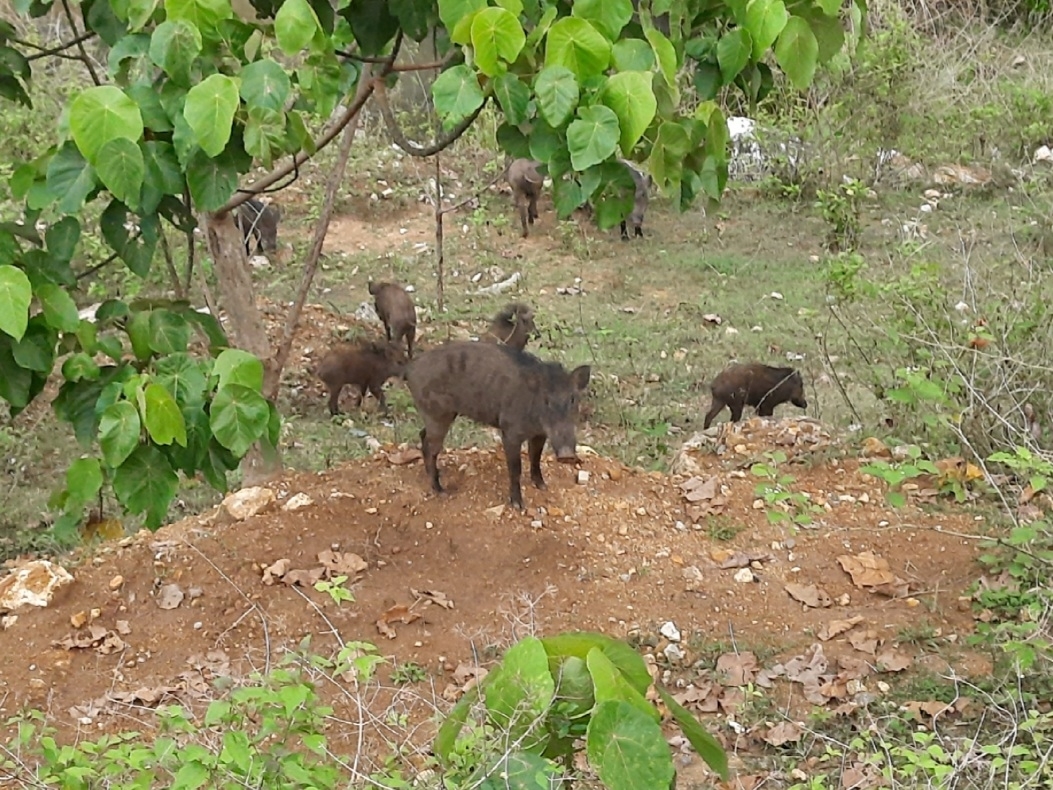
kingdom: Animalia
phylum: Chordata
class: Mammalia
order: Artiodactyla
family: Suidae
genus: Sus
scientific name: Sus scrofa
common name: Wild boar
